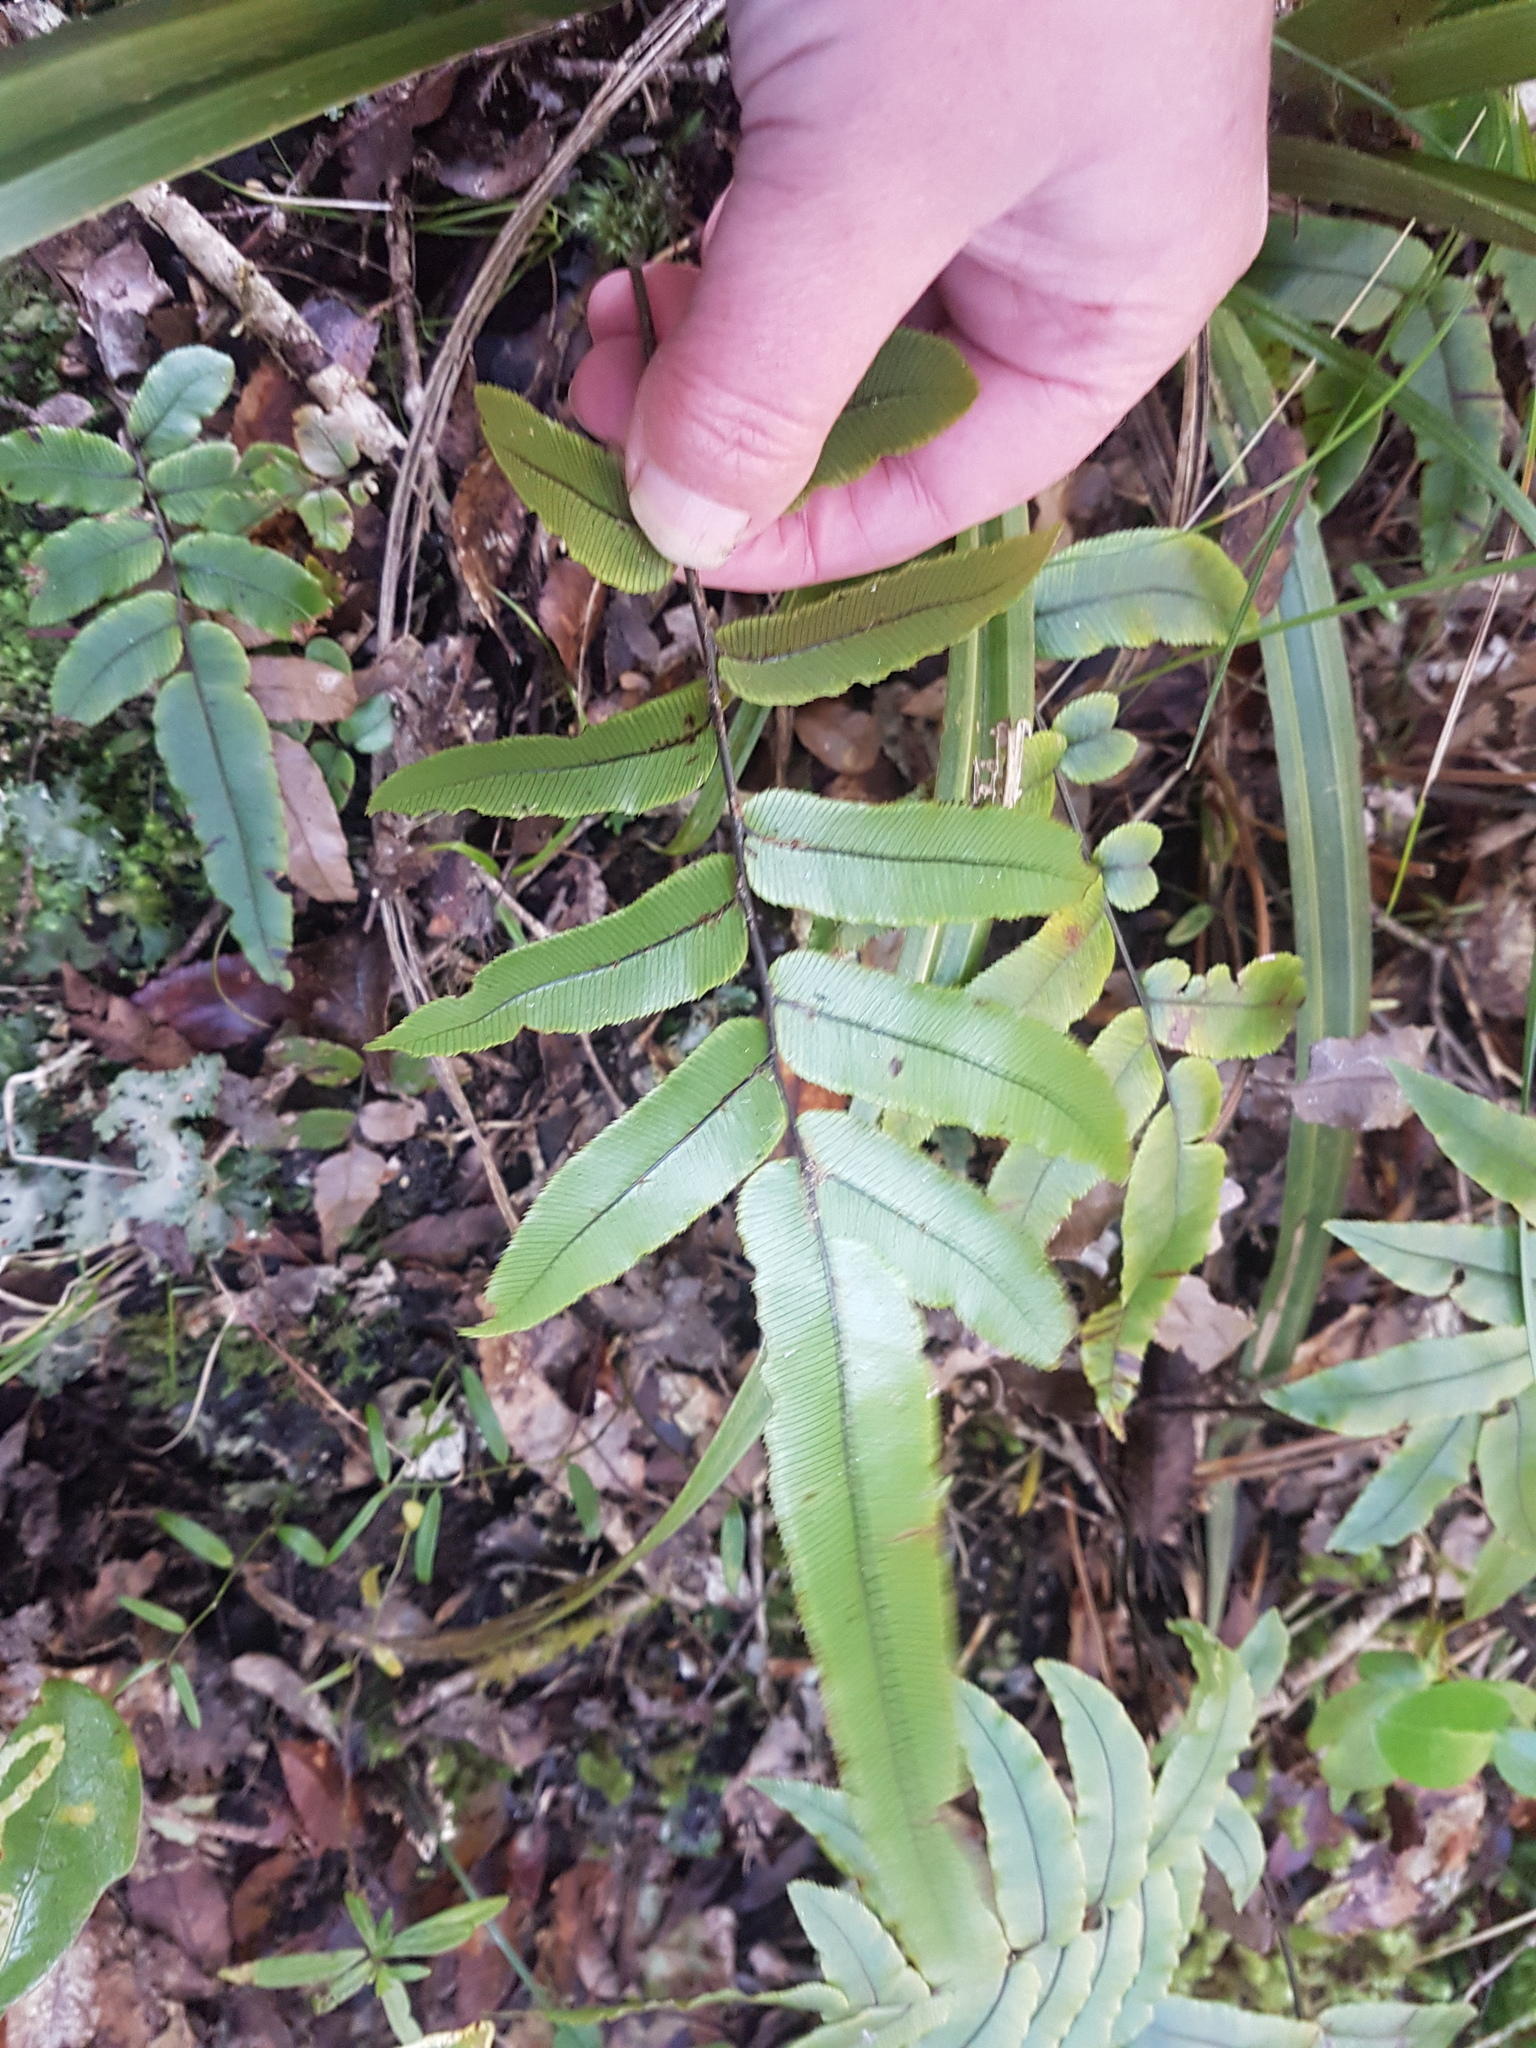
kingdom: Plantae
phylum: Tracheophyta
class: Polypodiopsida
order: Polypodiales
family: Blechnaceae
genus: Parablechnum
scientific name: Parablechnum procerum
